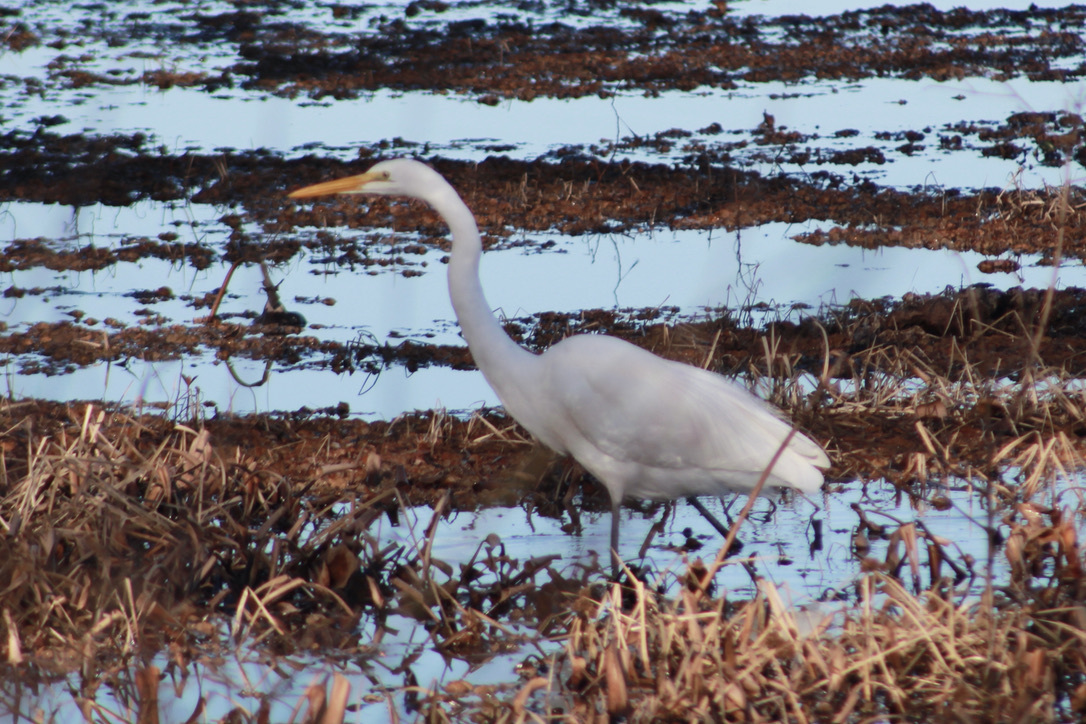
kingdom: Animalia
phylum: Chordata
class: Aves
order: Pelecaniformes
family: Ardeidae
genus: Ardea
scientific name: Ardea alba
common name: Great egret
